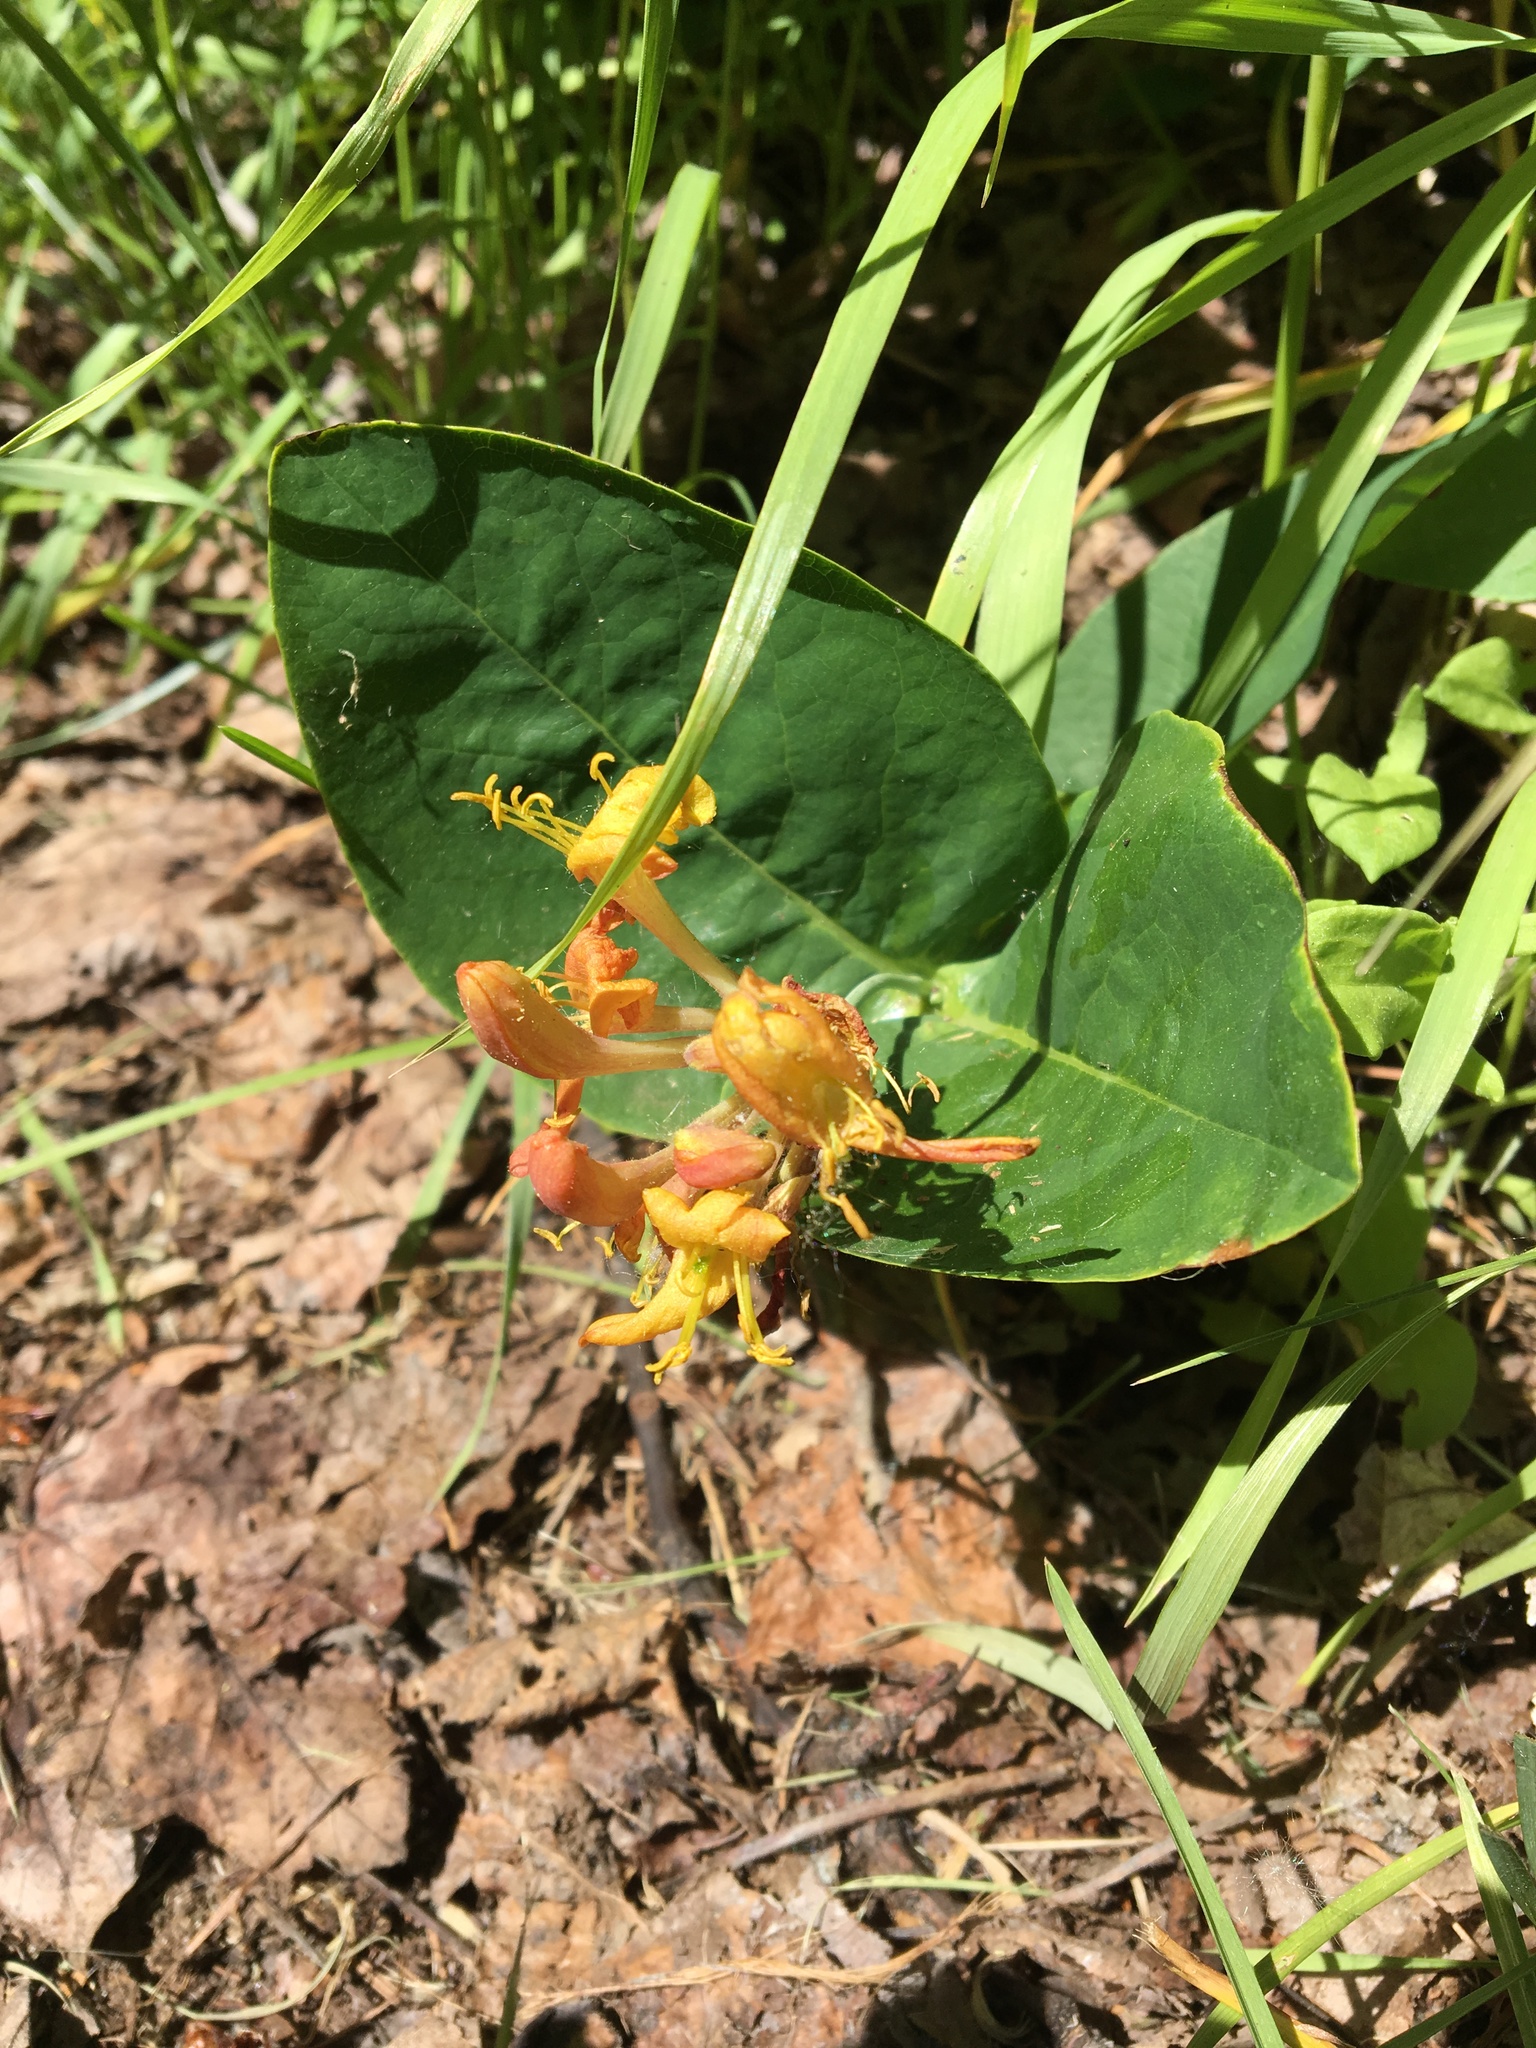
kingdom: Plantae
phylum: Tracheophyta
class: Magnoliopsida
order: Dipsacales
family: Caprifoliaceae
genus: Lonicera
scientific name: Lonicera dioica
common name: Limber honeysuckle
